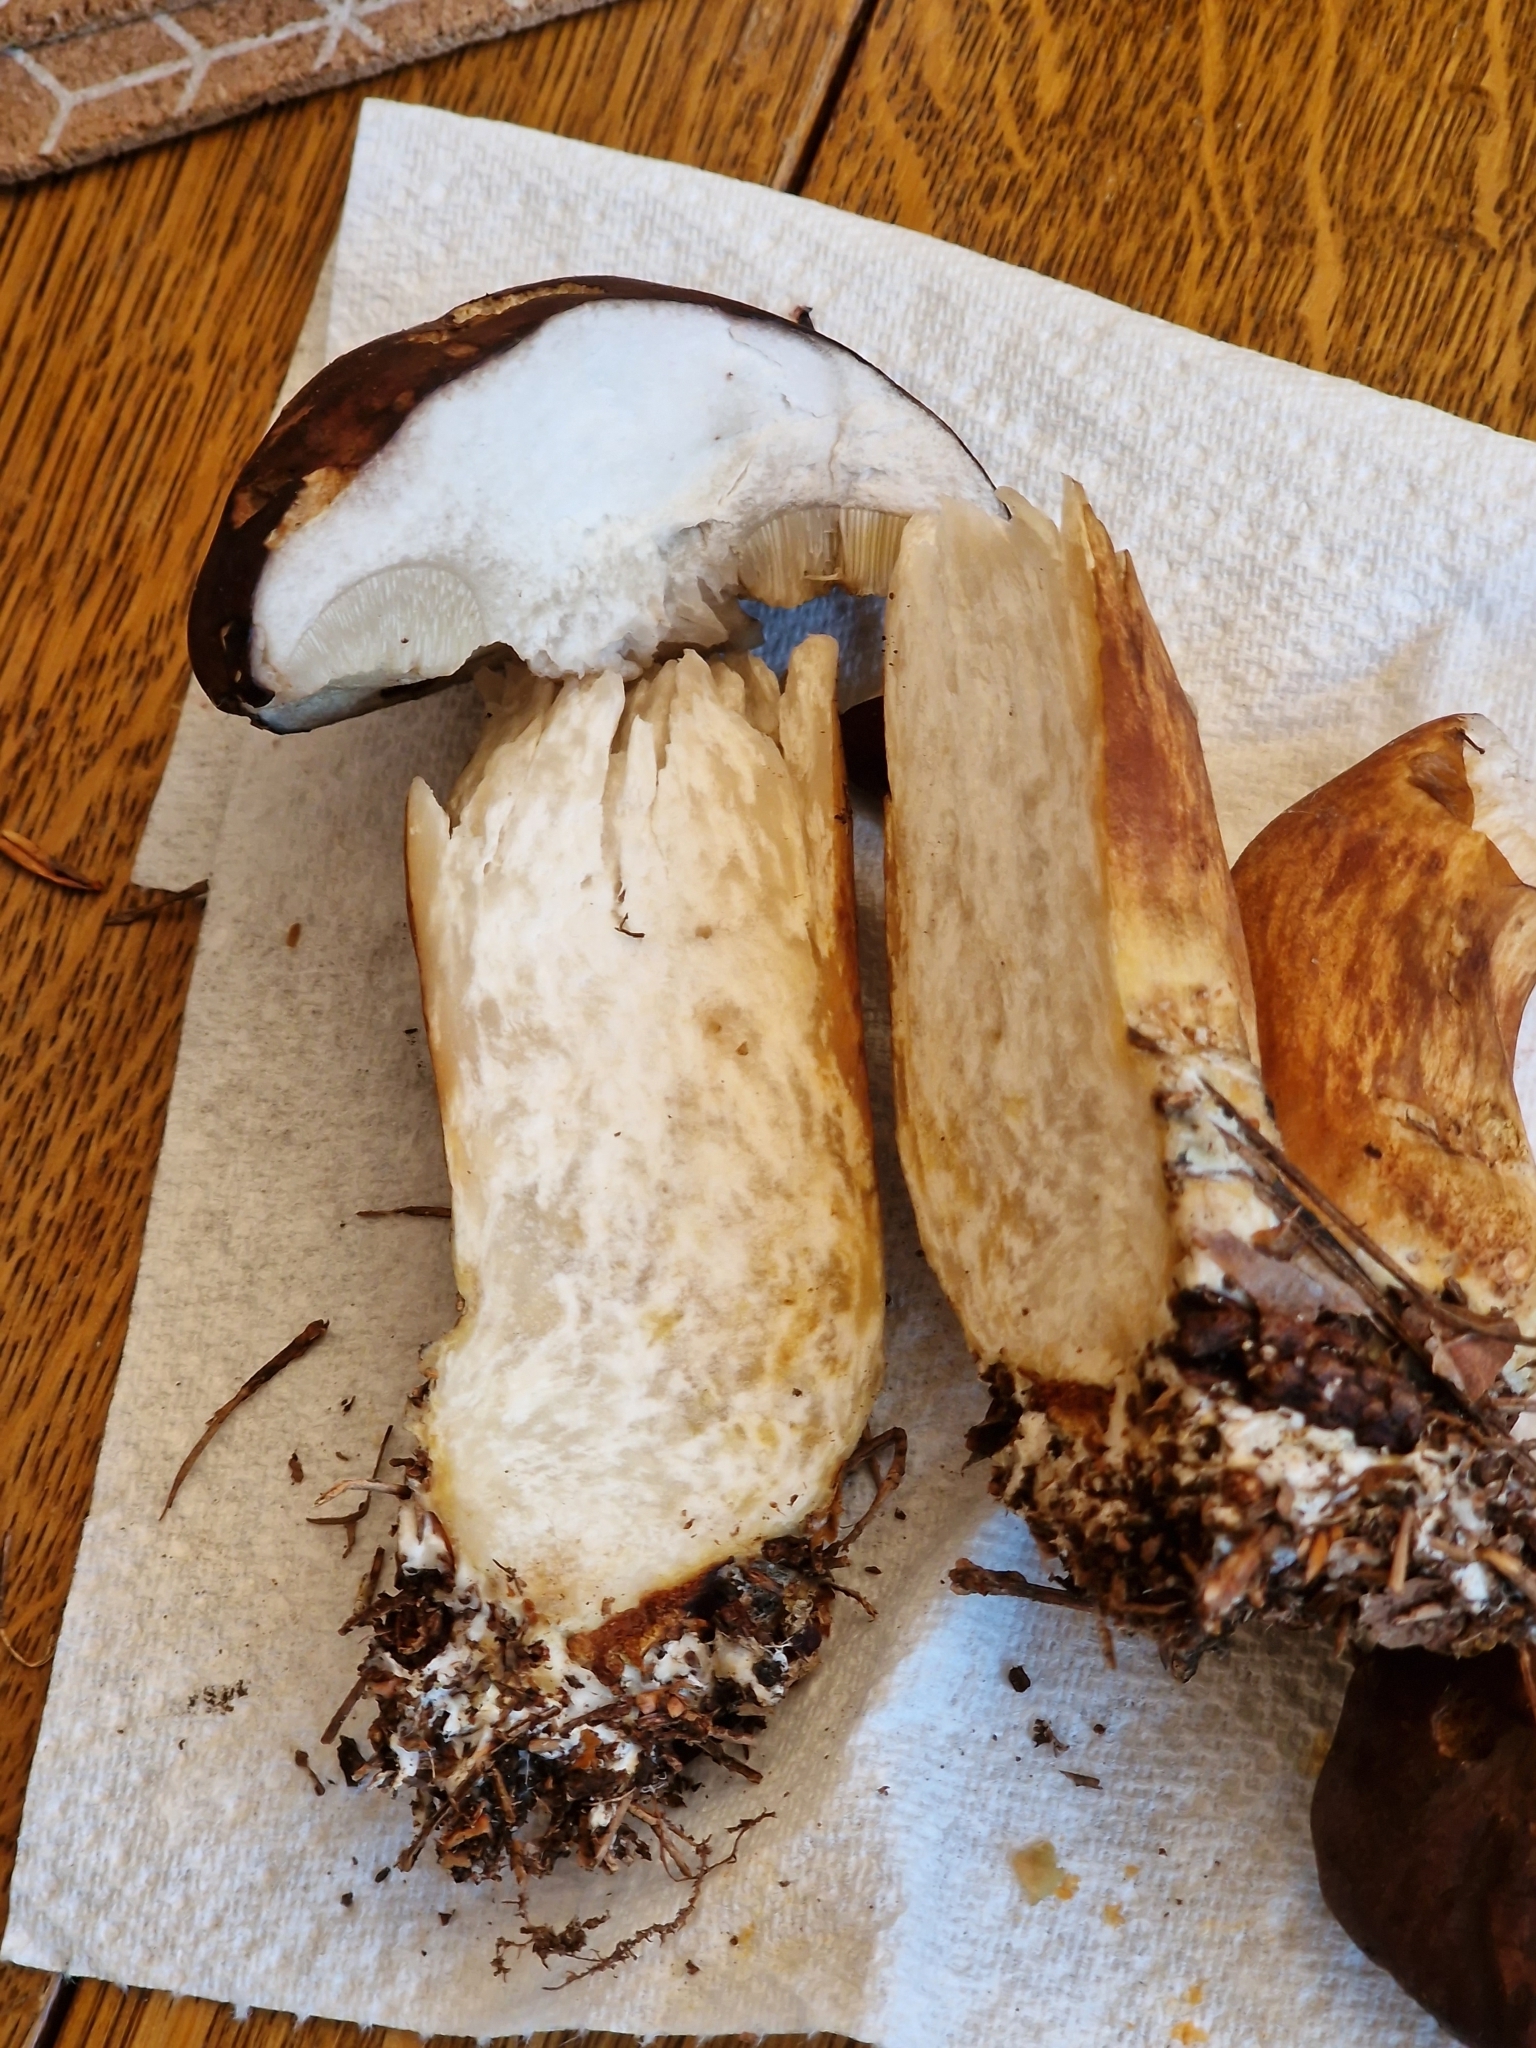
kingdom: Fungi
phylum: Basidiomycota
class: Agaricomycetes
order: Boletales
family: Boletaceae
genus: Imleria
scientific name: Imleria badia
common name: Bay bolete
